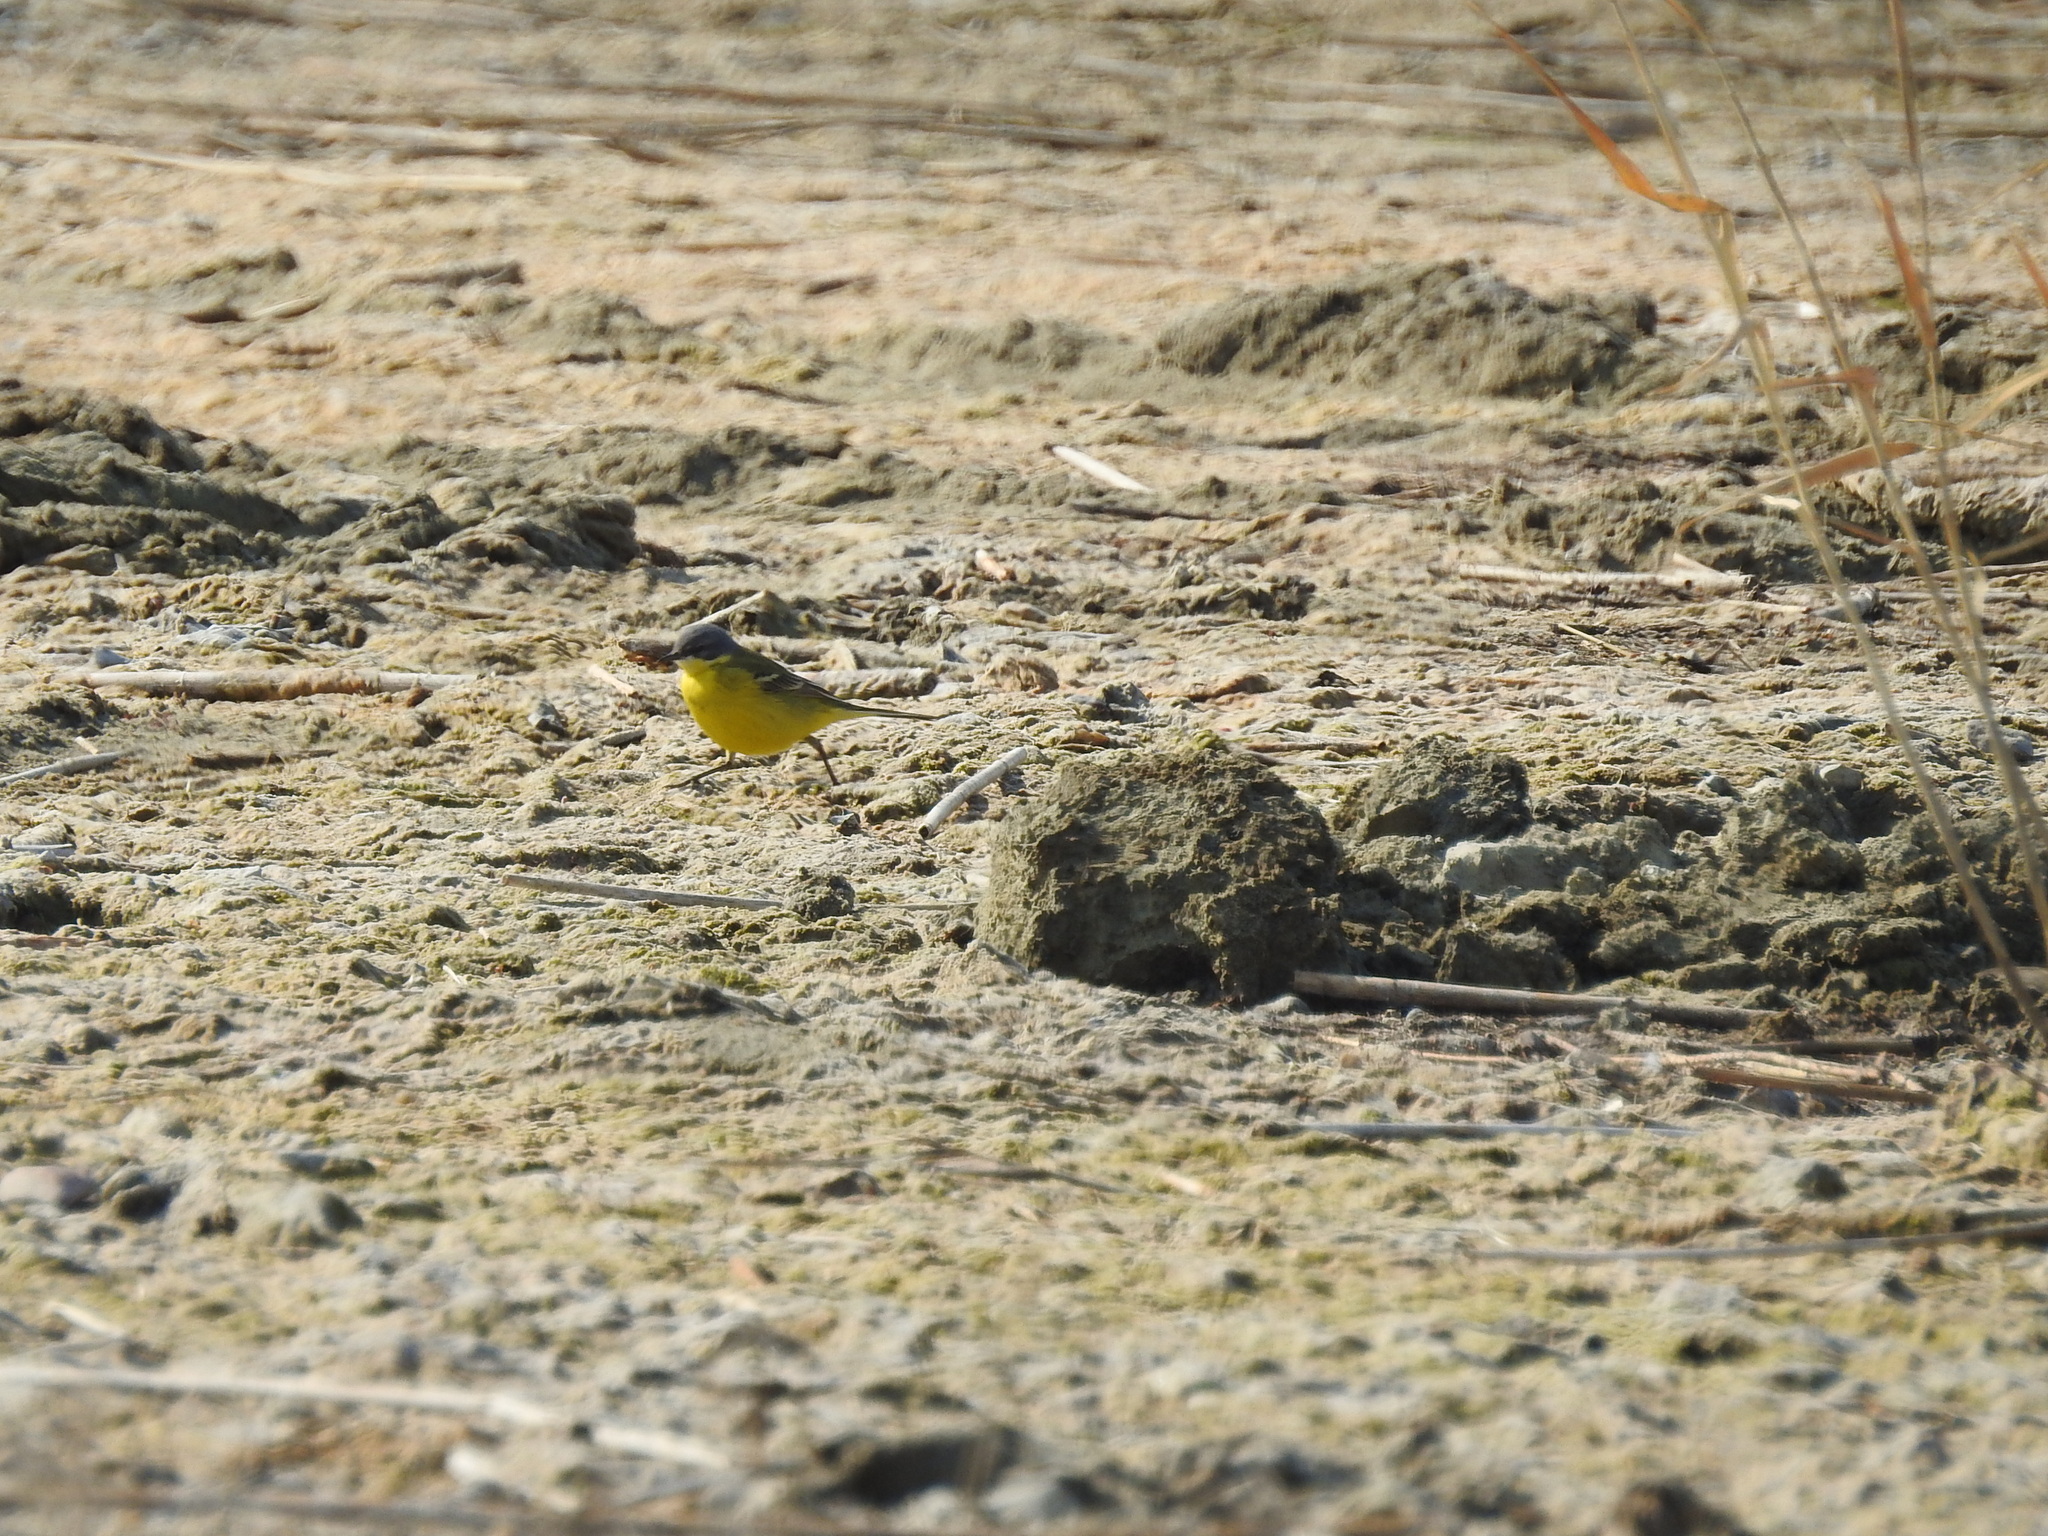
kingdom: Animalia
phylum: Chordata
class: Aves
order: Passeriformes
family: Motacillidae
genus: Motacilla
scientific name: Motacilla tschutschensis
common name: Eastern yellow wagtail
